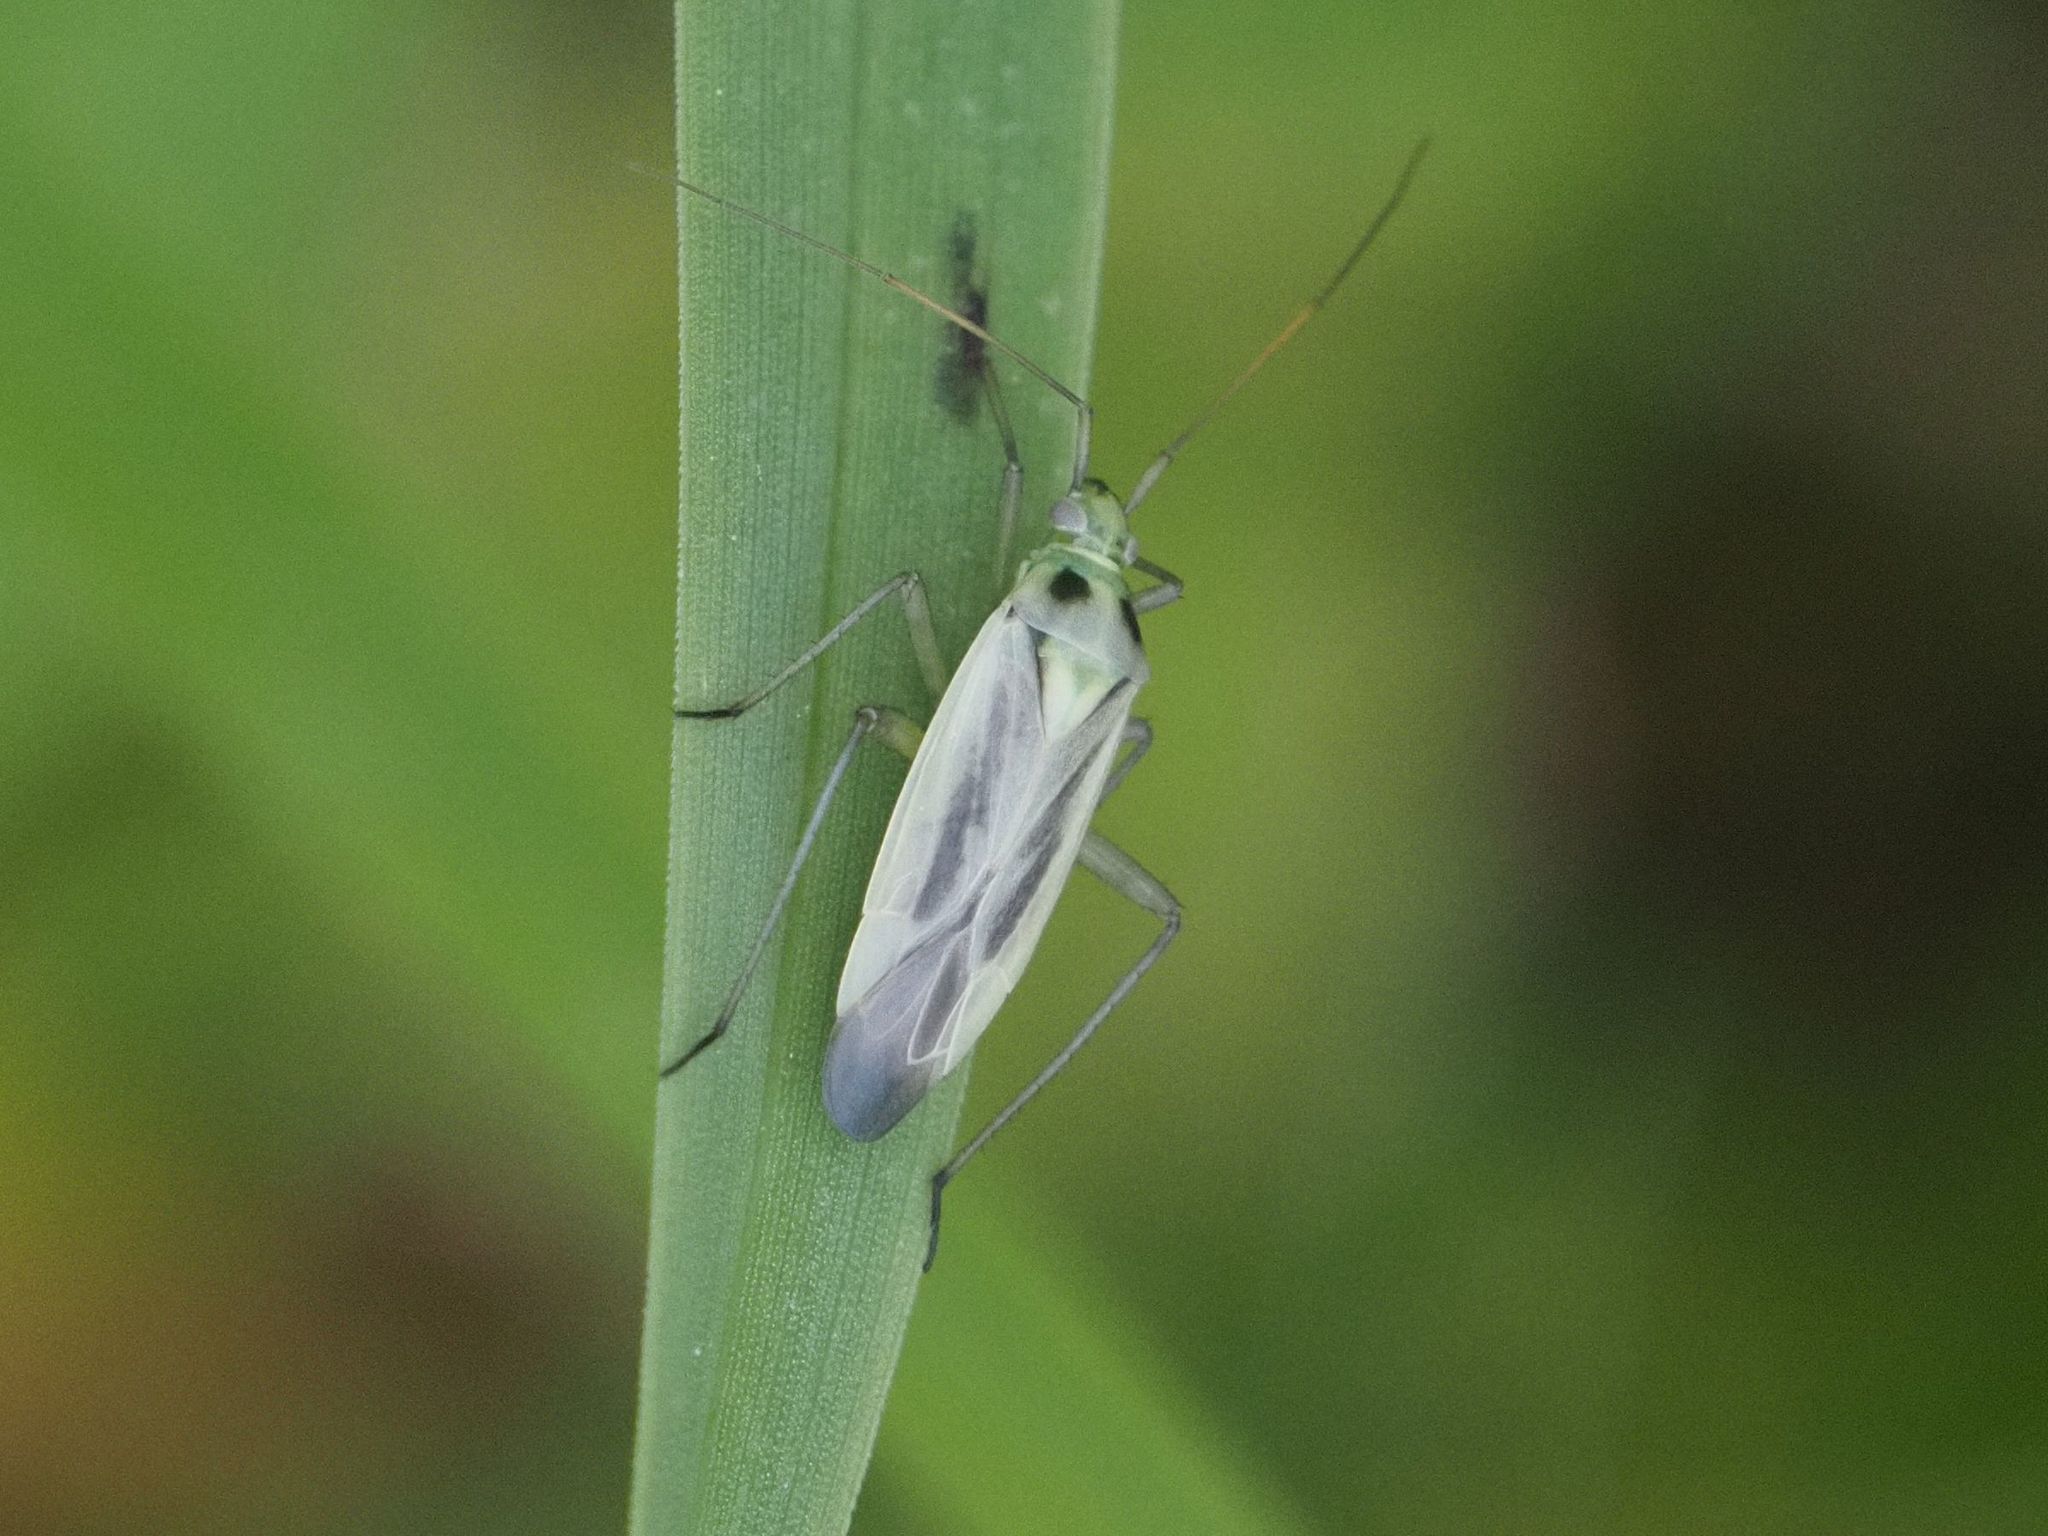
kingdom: Animalia
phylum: Arthropoda
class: Insecta
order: Hemiptera
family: Miridae
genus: Stenotus
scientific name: Stenotus binotatus
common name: Plant bug
